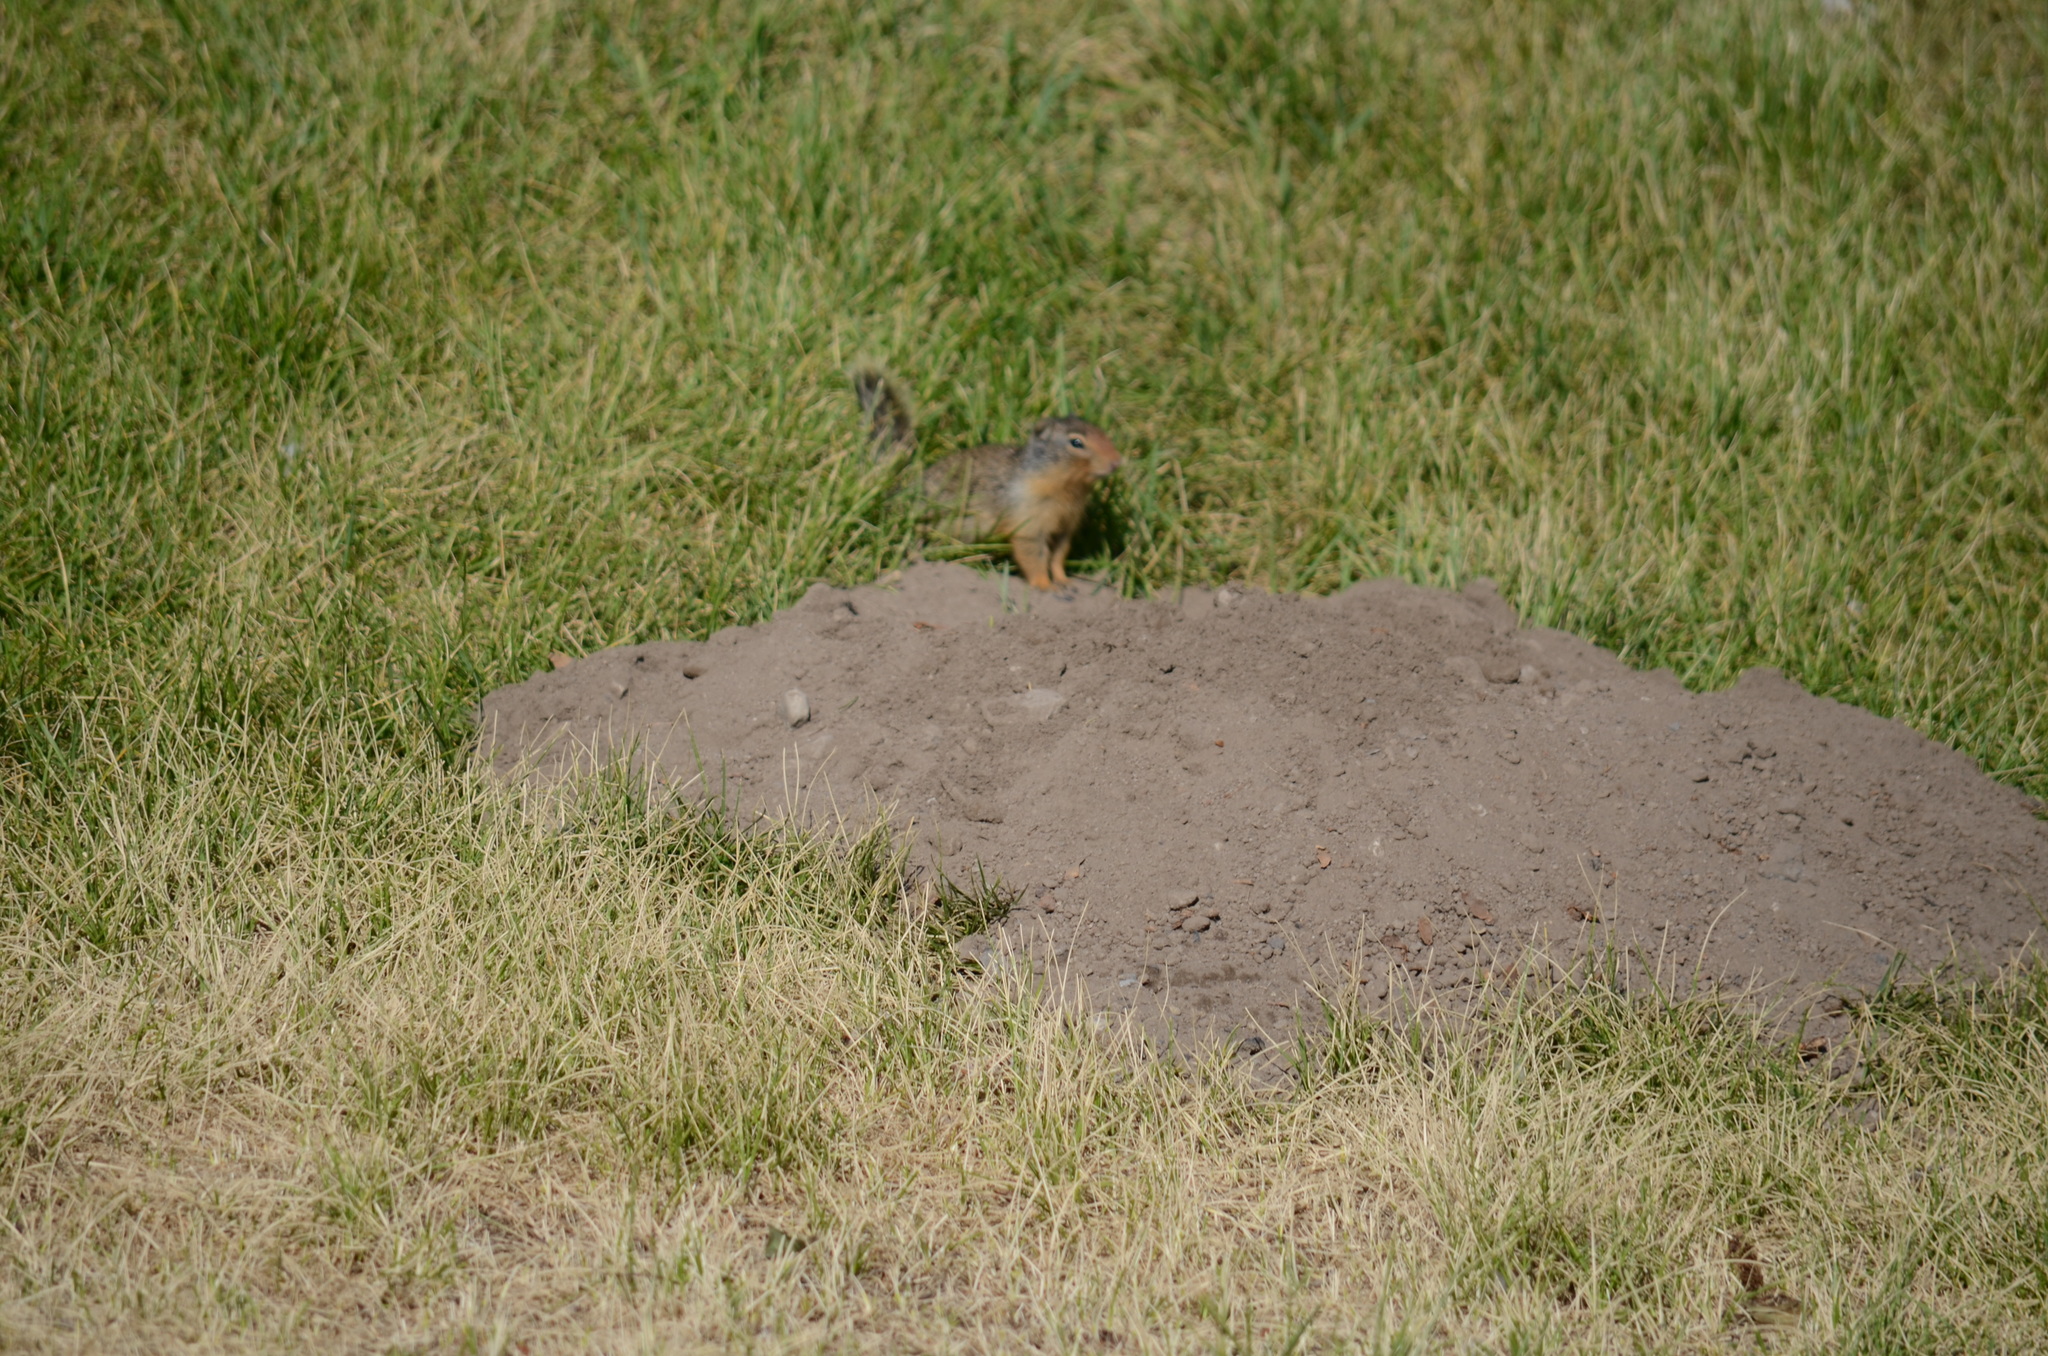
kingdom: Animalia
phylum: Chordata
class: Mammalia
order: Rodentia
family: Sciuridae
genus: Urocitellus
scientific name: Urocitellus columbianus
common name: Columbian ground squirrel
